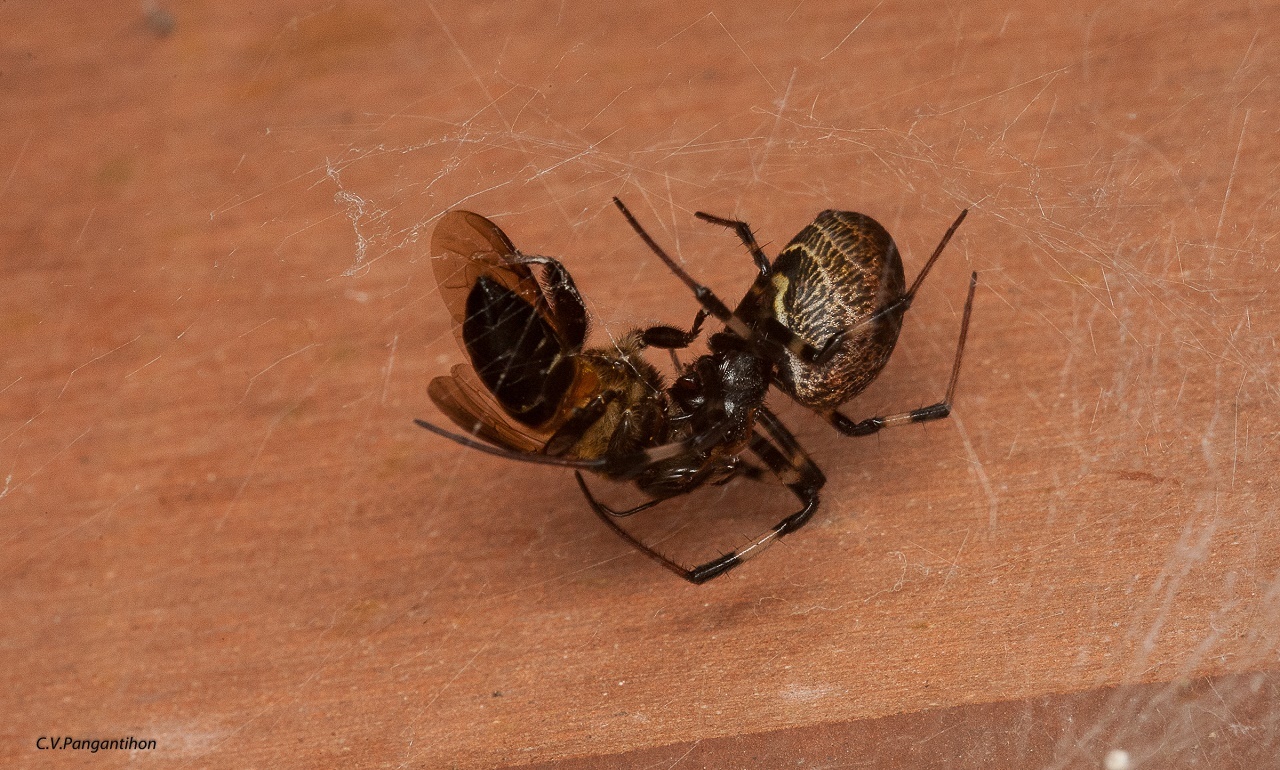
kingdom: Animalia
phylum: Arthropoda
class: Arachnida
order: Araneae
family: Araneidae
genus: Nephilengys
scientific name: Nephilengys malabarensis
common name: Asian hermit spider
